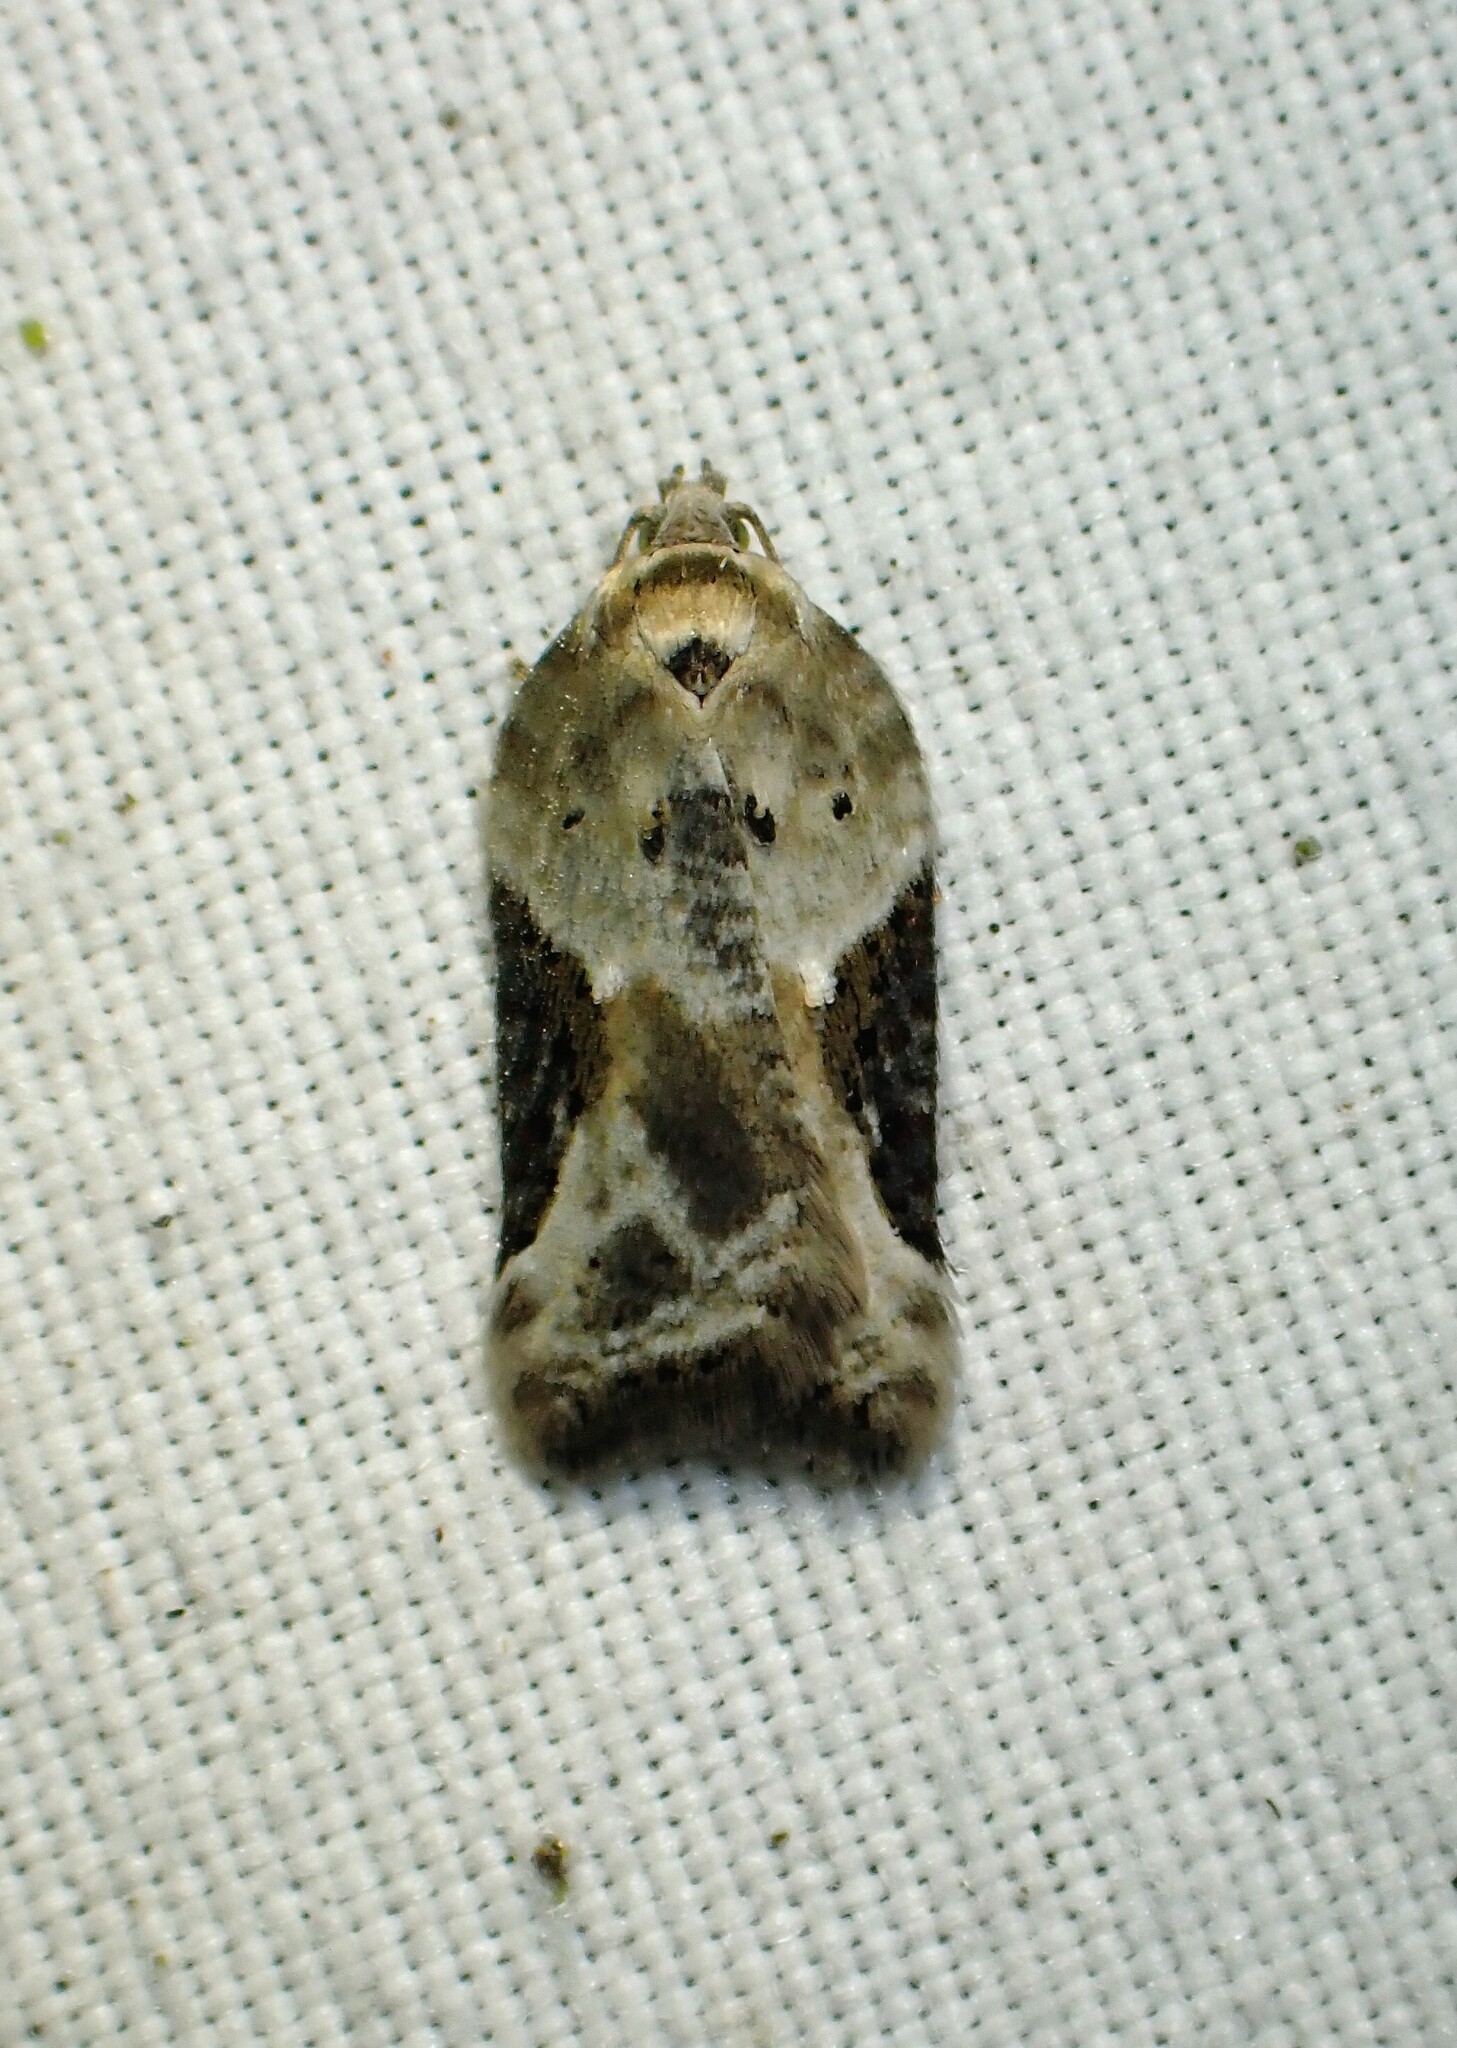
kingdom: Animalia
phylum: Arthropoda
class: Insecta
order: Lepidoptera
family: Tortricidae
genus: Acleris
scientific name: Acleris forbesana
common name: Forbes' acleris moth
